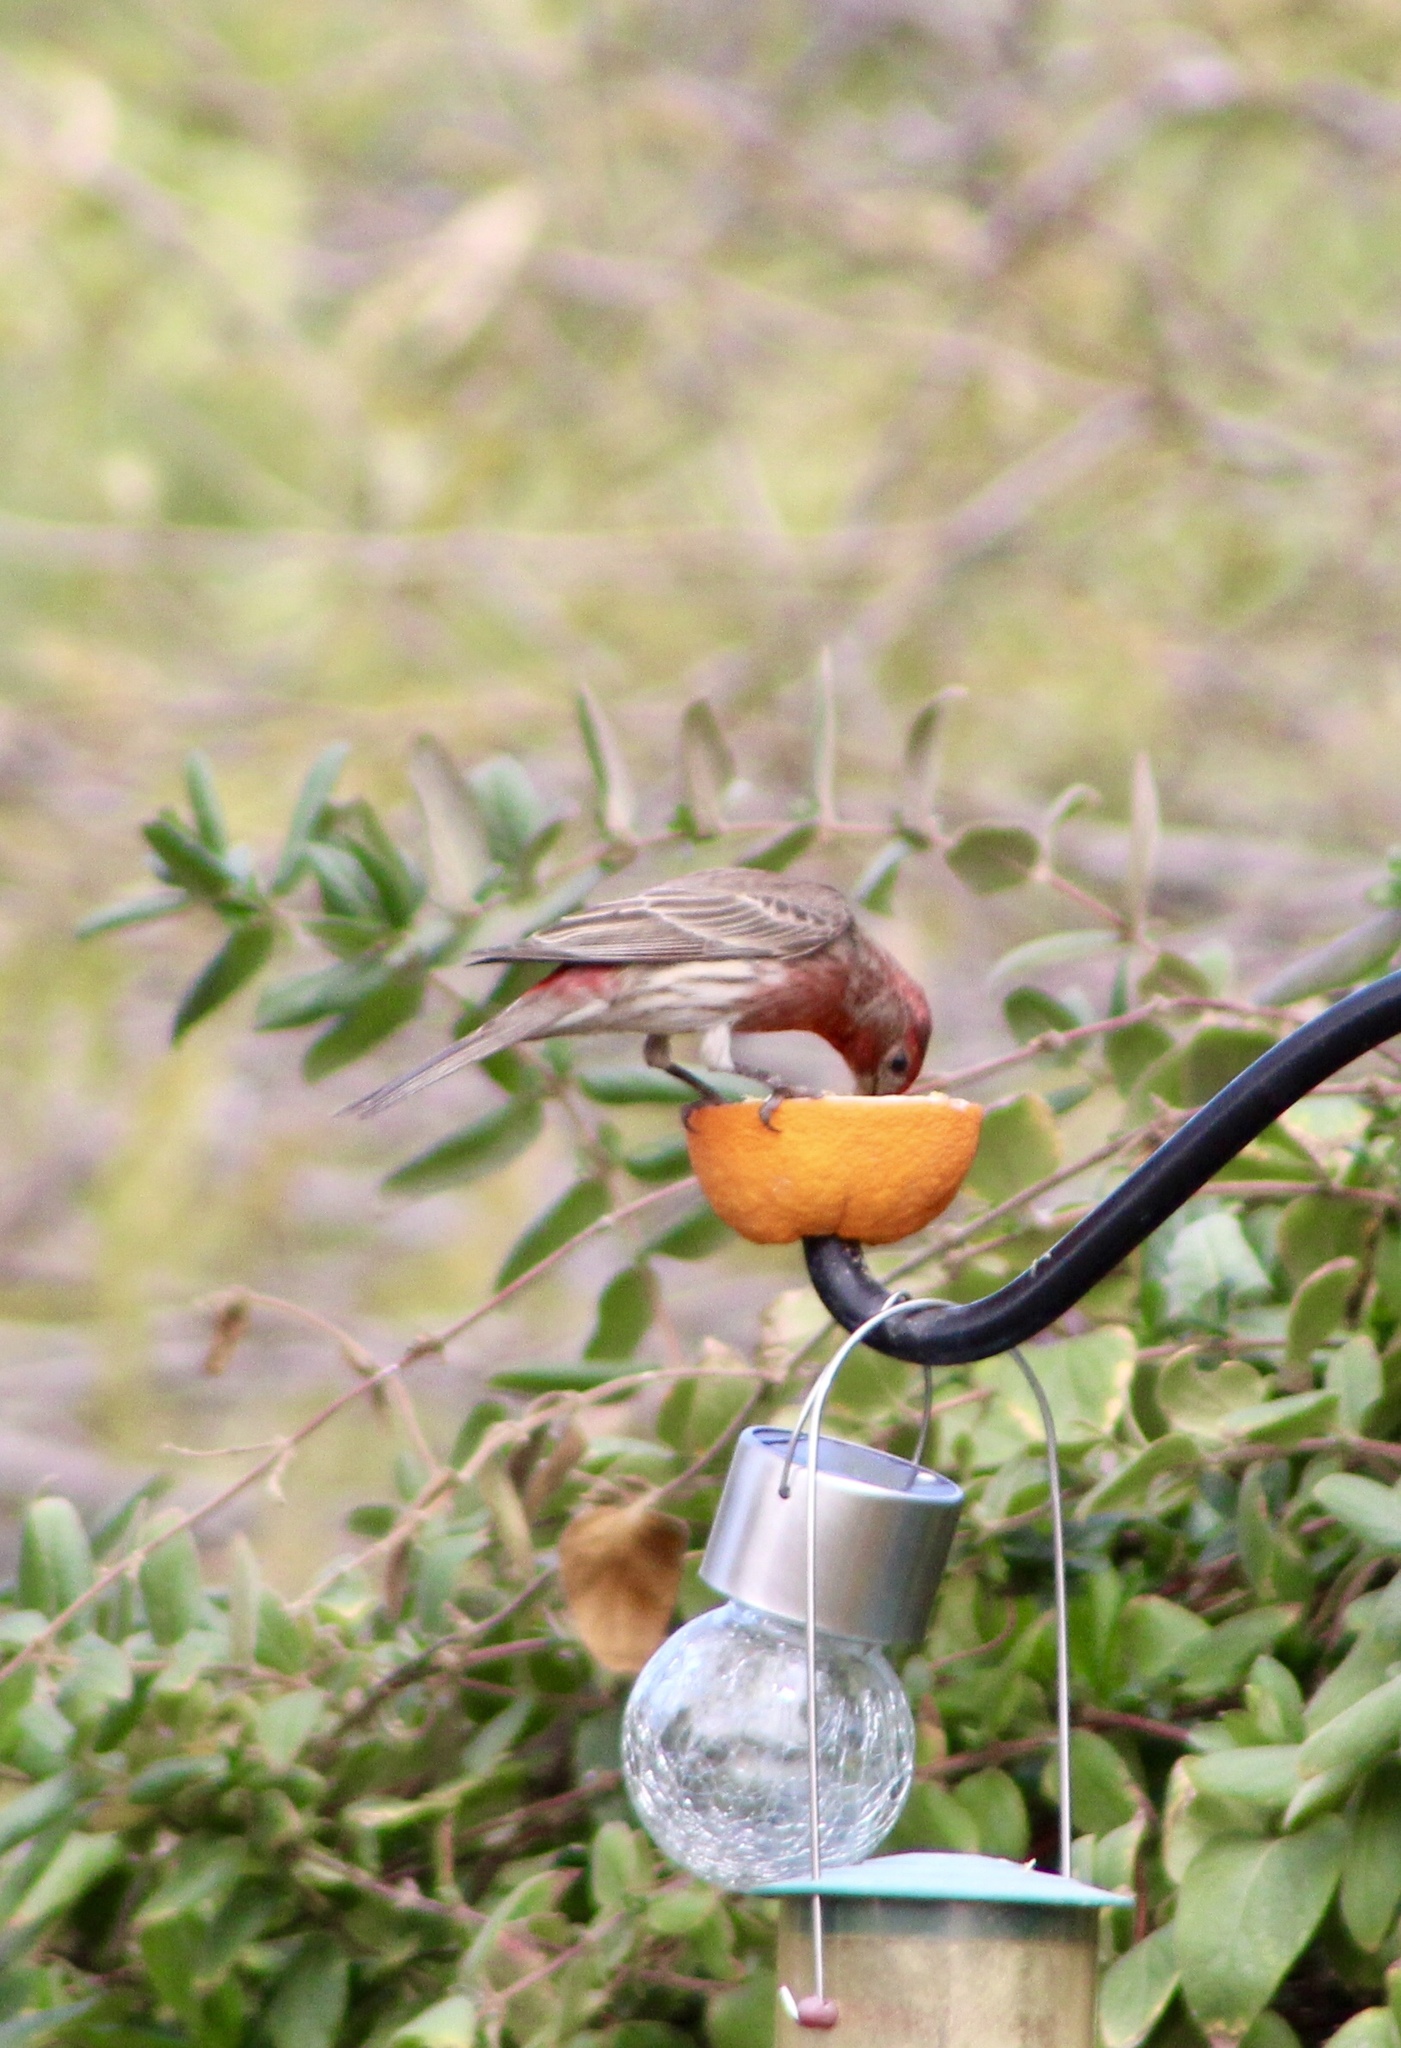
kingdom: Animalia
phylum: Chordata
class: Aves
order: Passeriformes
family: Fringillidae
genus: Haemorhous
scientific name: Haemorhous mexicanus
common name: House finch
